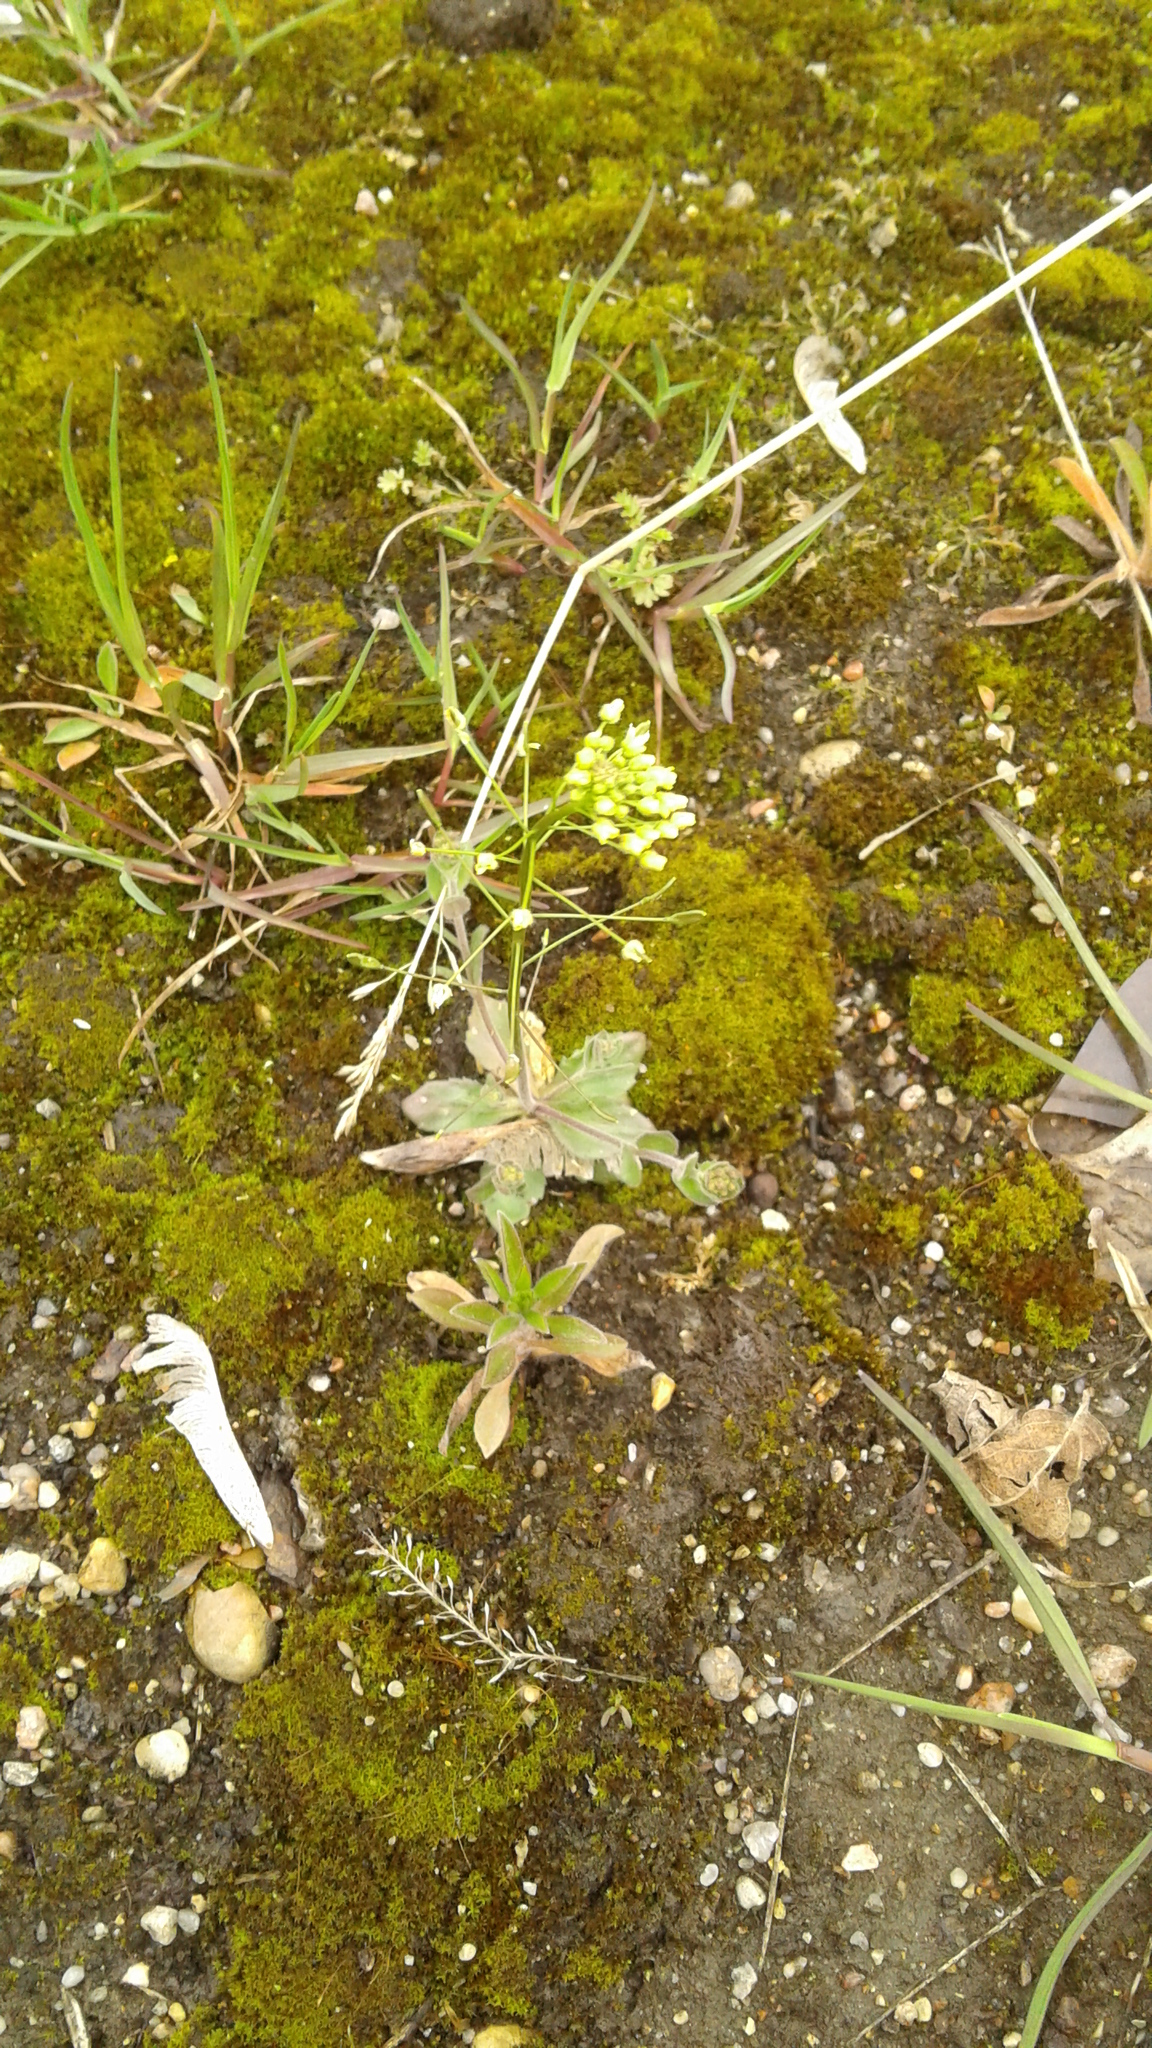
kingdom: Plantae
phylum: Tracheophyta
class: Magnoliopsida
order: Brassicales
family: Brassicaceae
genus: Draba
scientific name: Draba nemorosa
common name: Wood whitlow-grass
